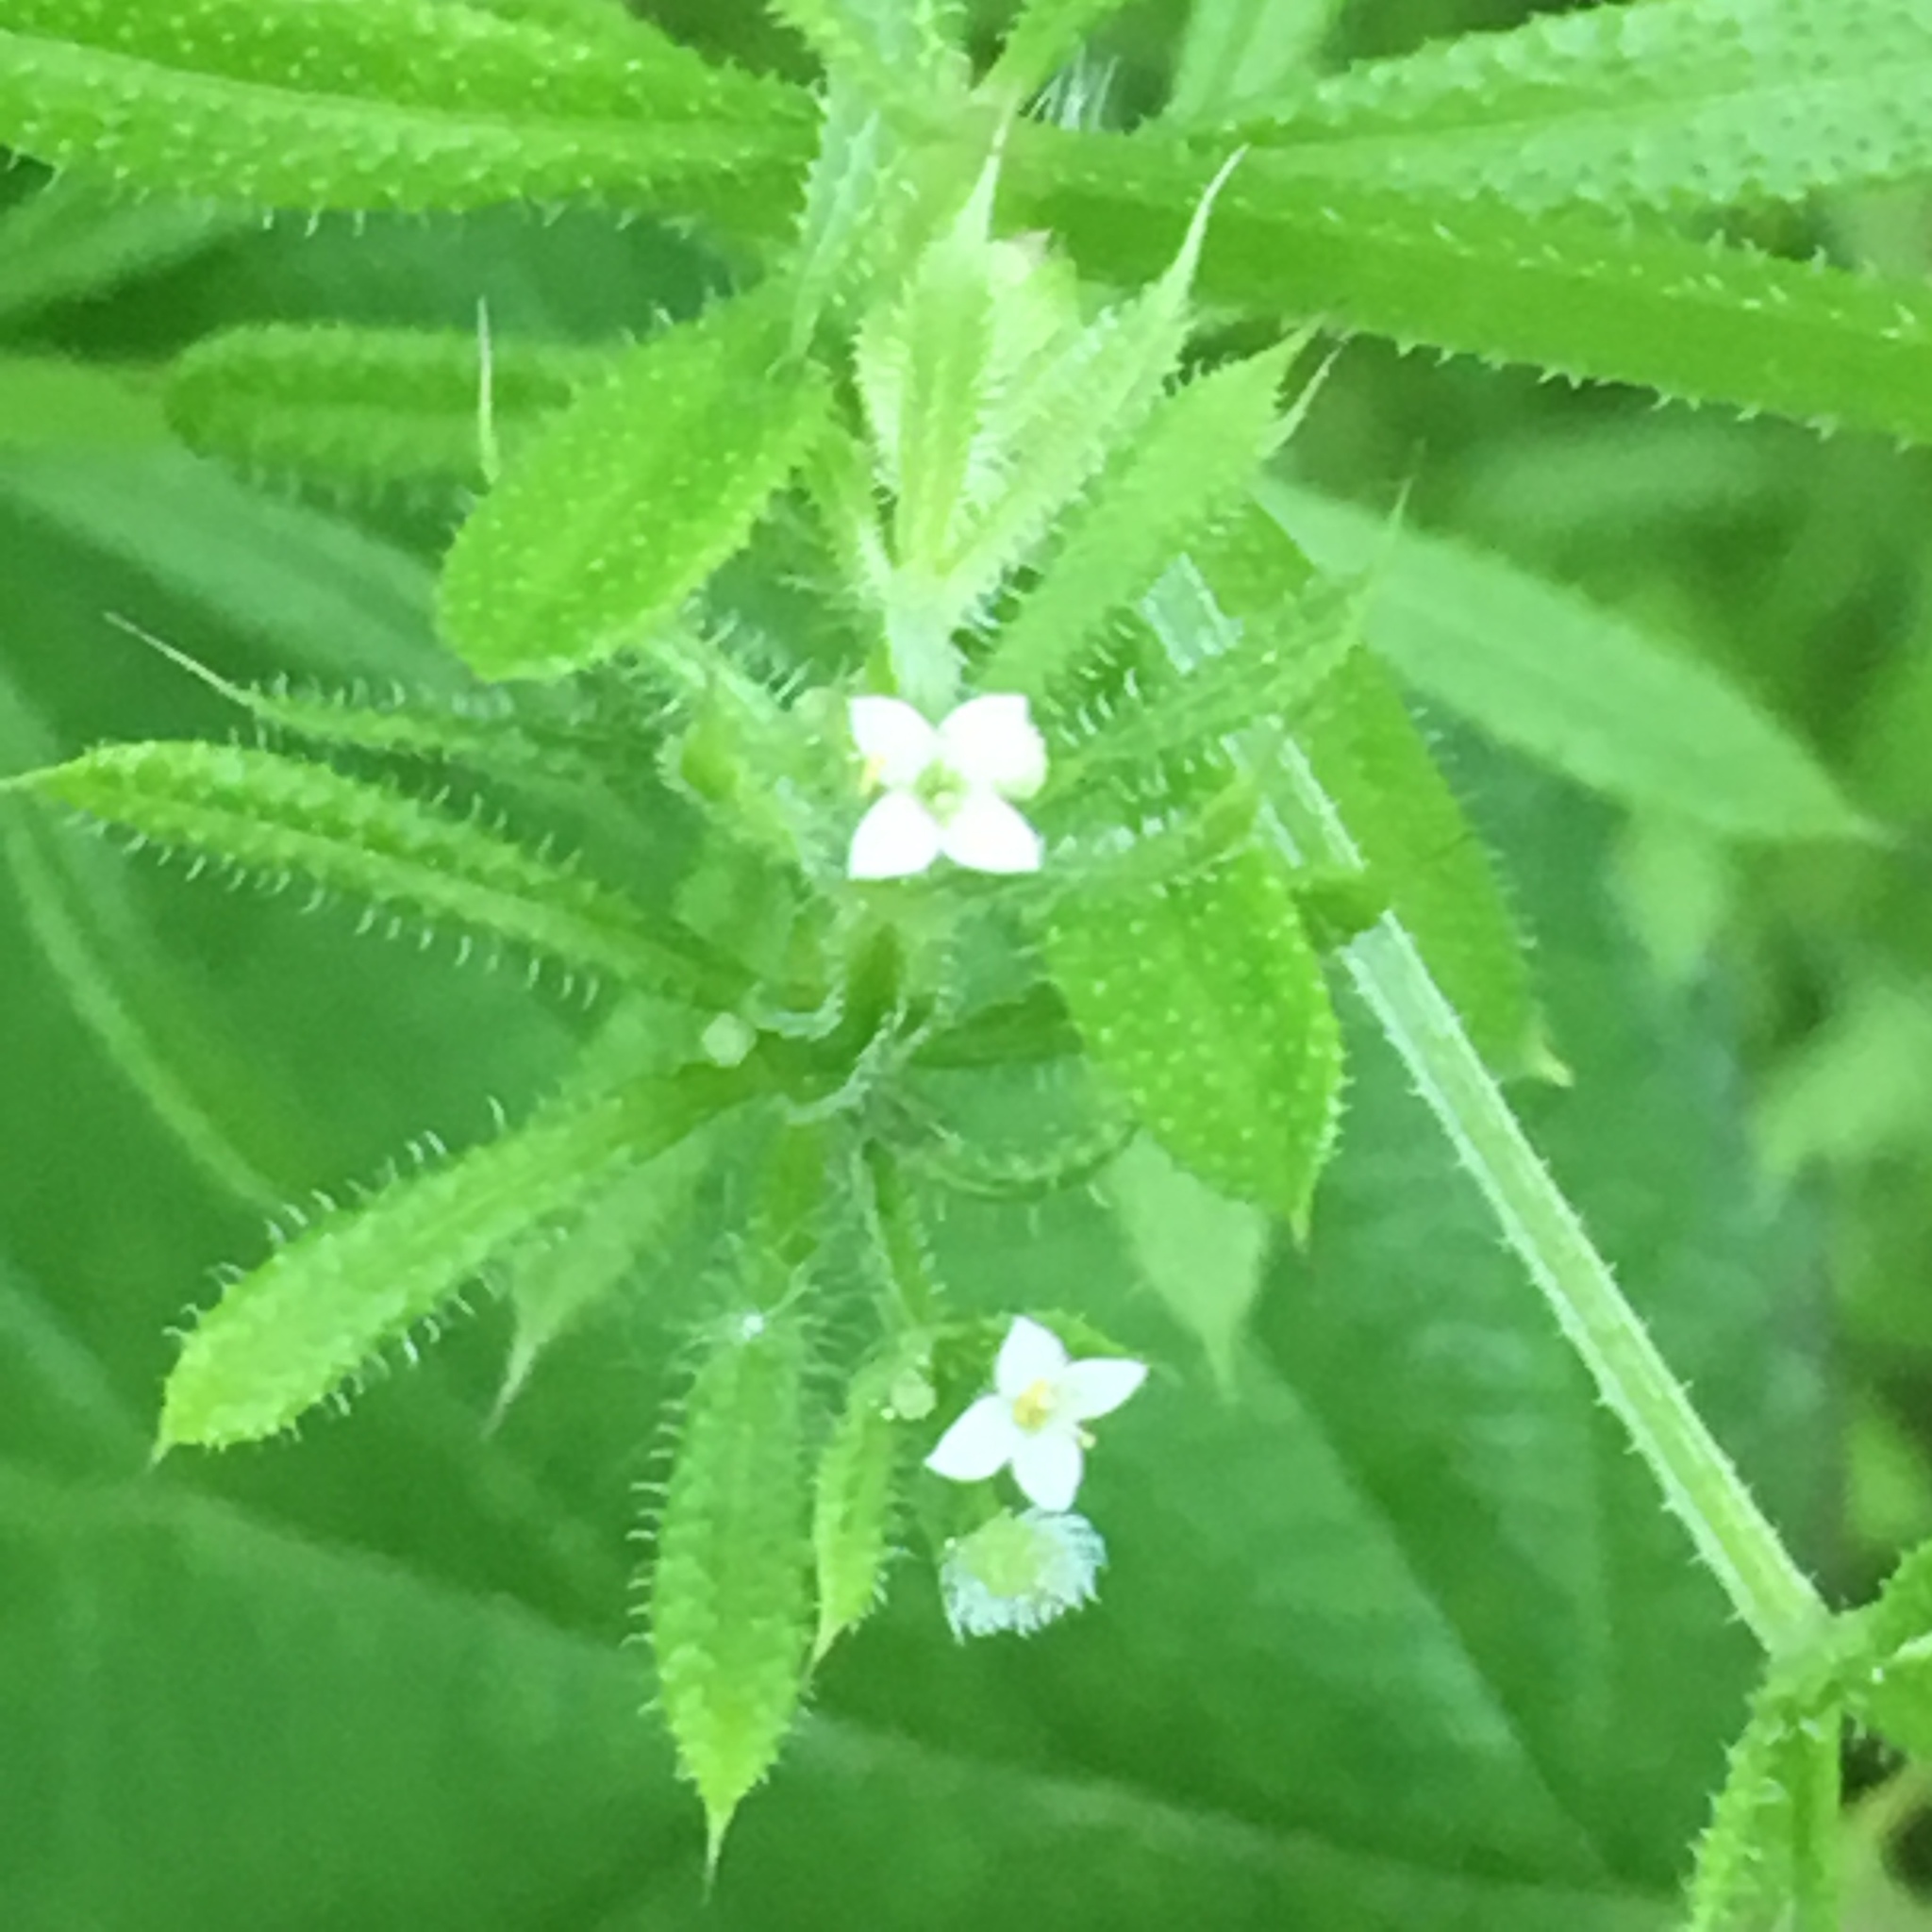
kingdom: Plantae
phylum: Tracheophyta
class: Magnoliopsida
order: Gentianales
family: Rubiaceae
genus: Galium
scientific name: Galium aparine
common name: Cleavers
